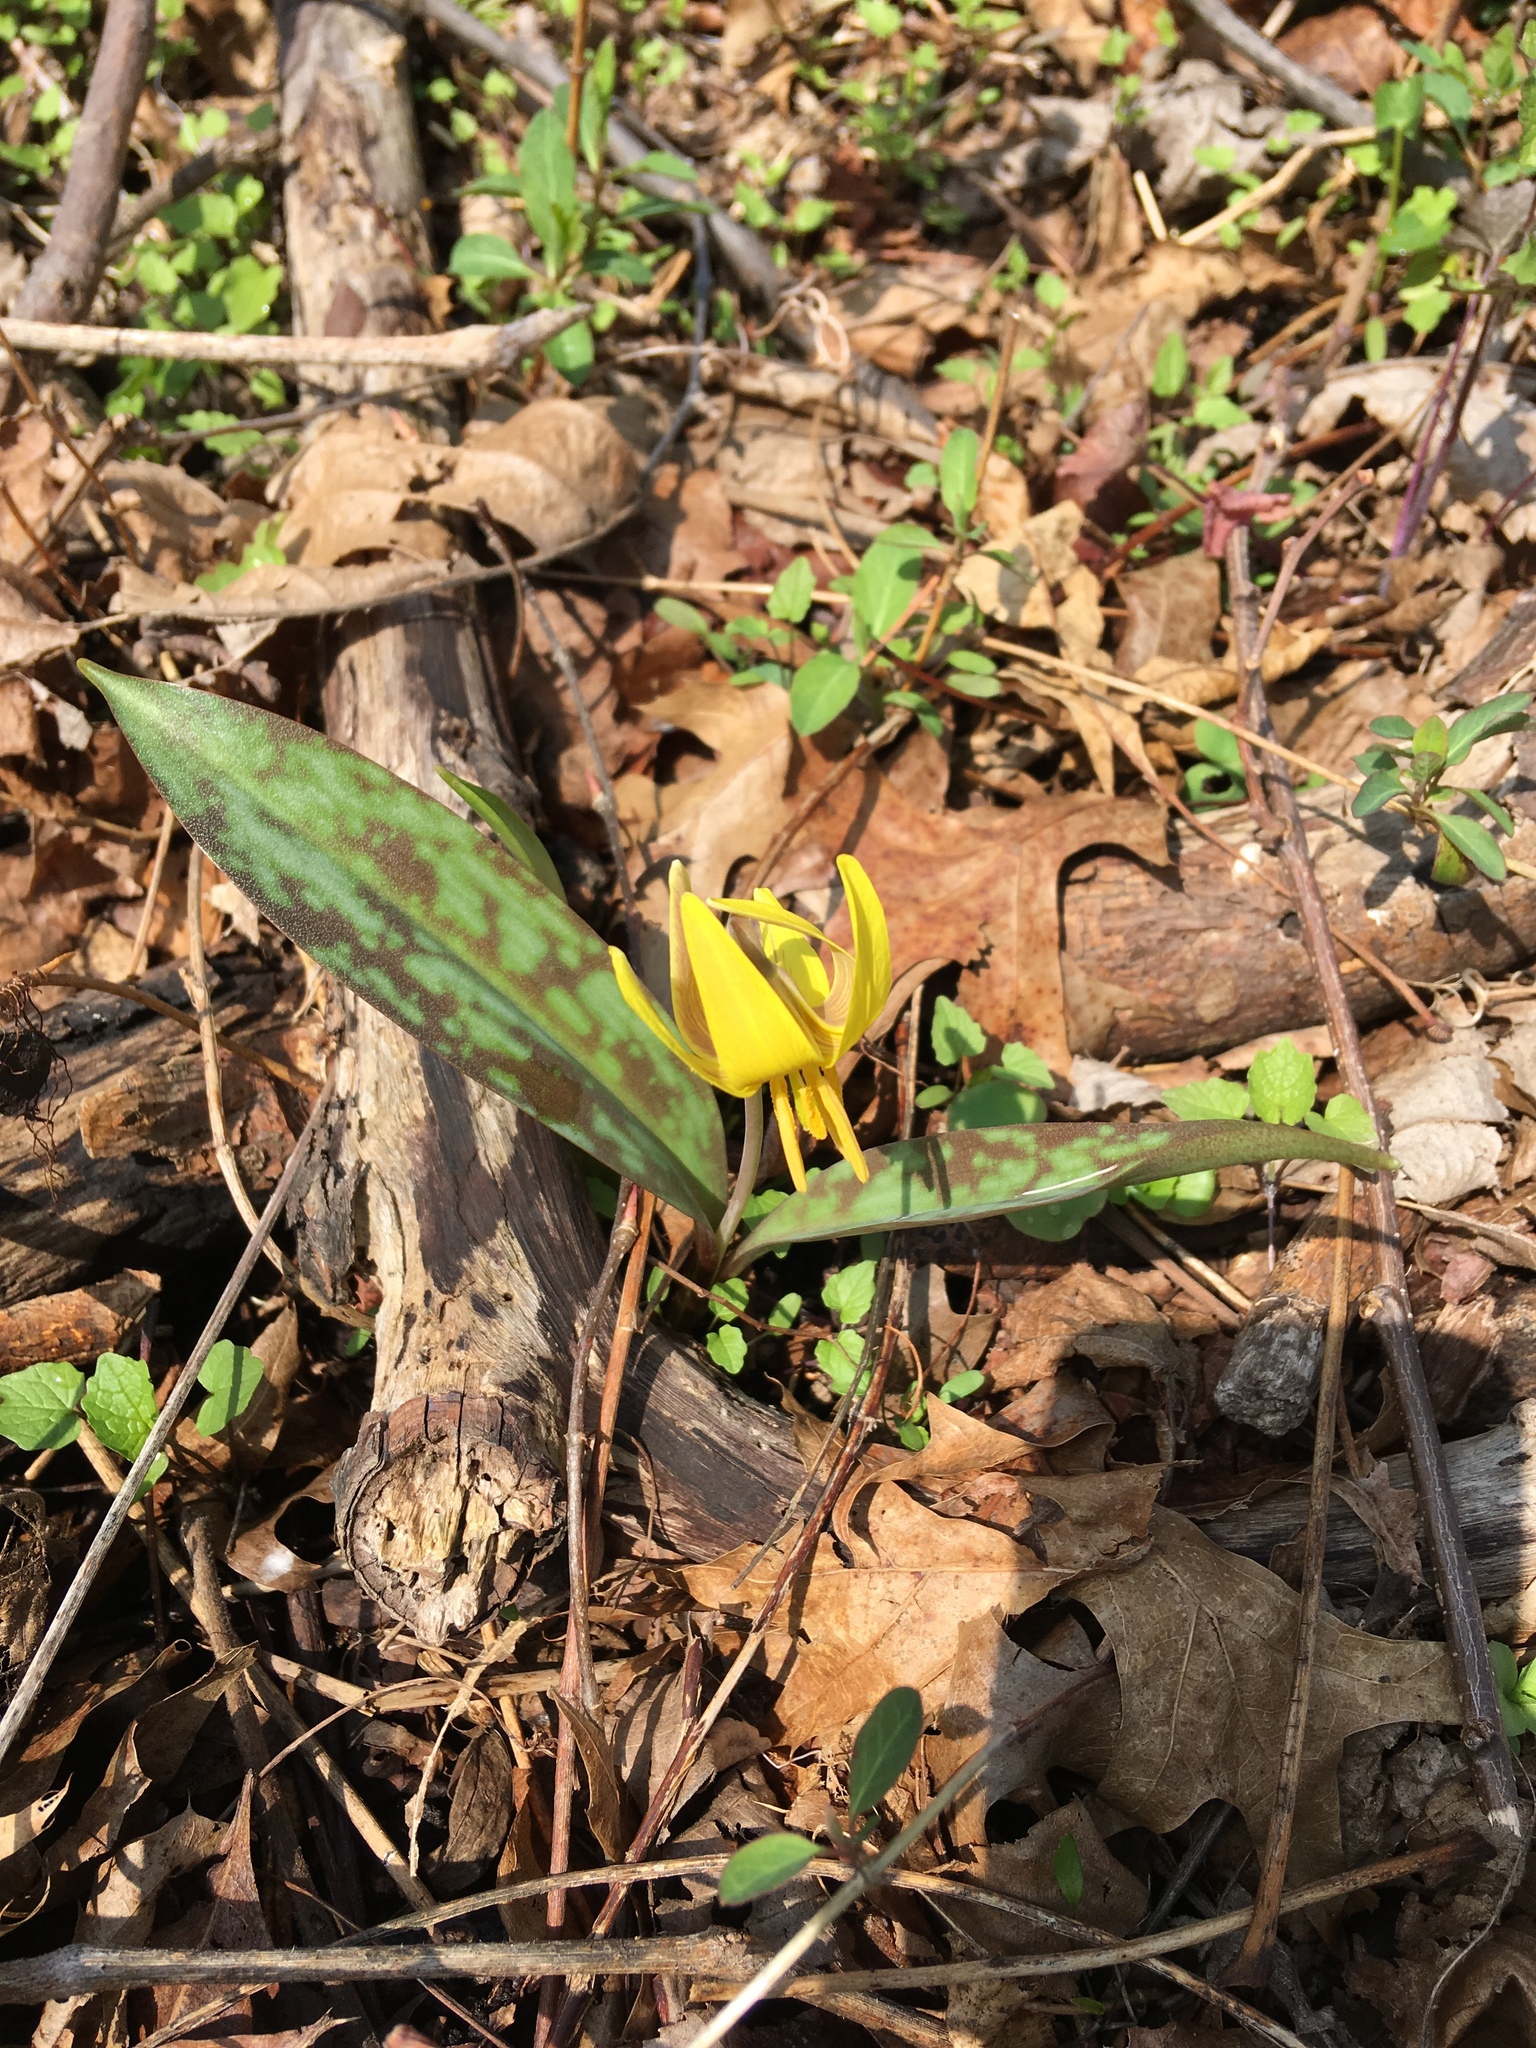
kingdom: Plantae
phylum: Tracheophyta
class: Liliopsida
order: Liliales
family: Liliaceae
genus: Erythronium
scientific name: Erythronium americanum
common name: Yellow adder's-tongue
